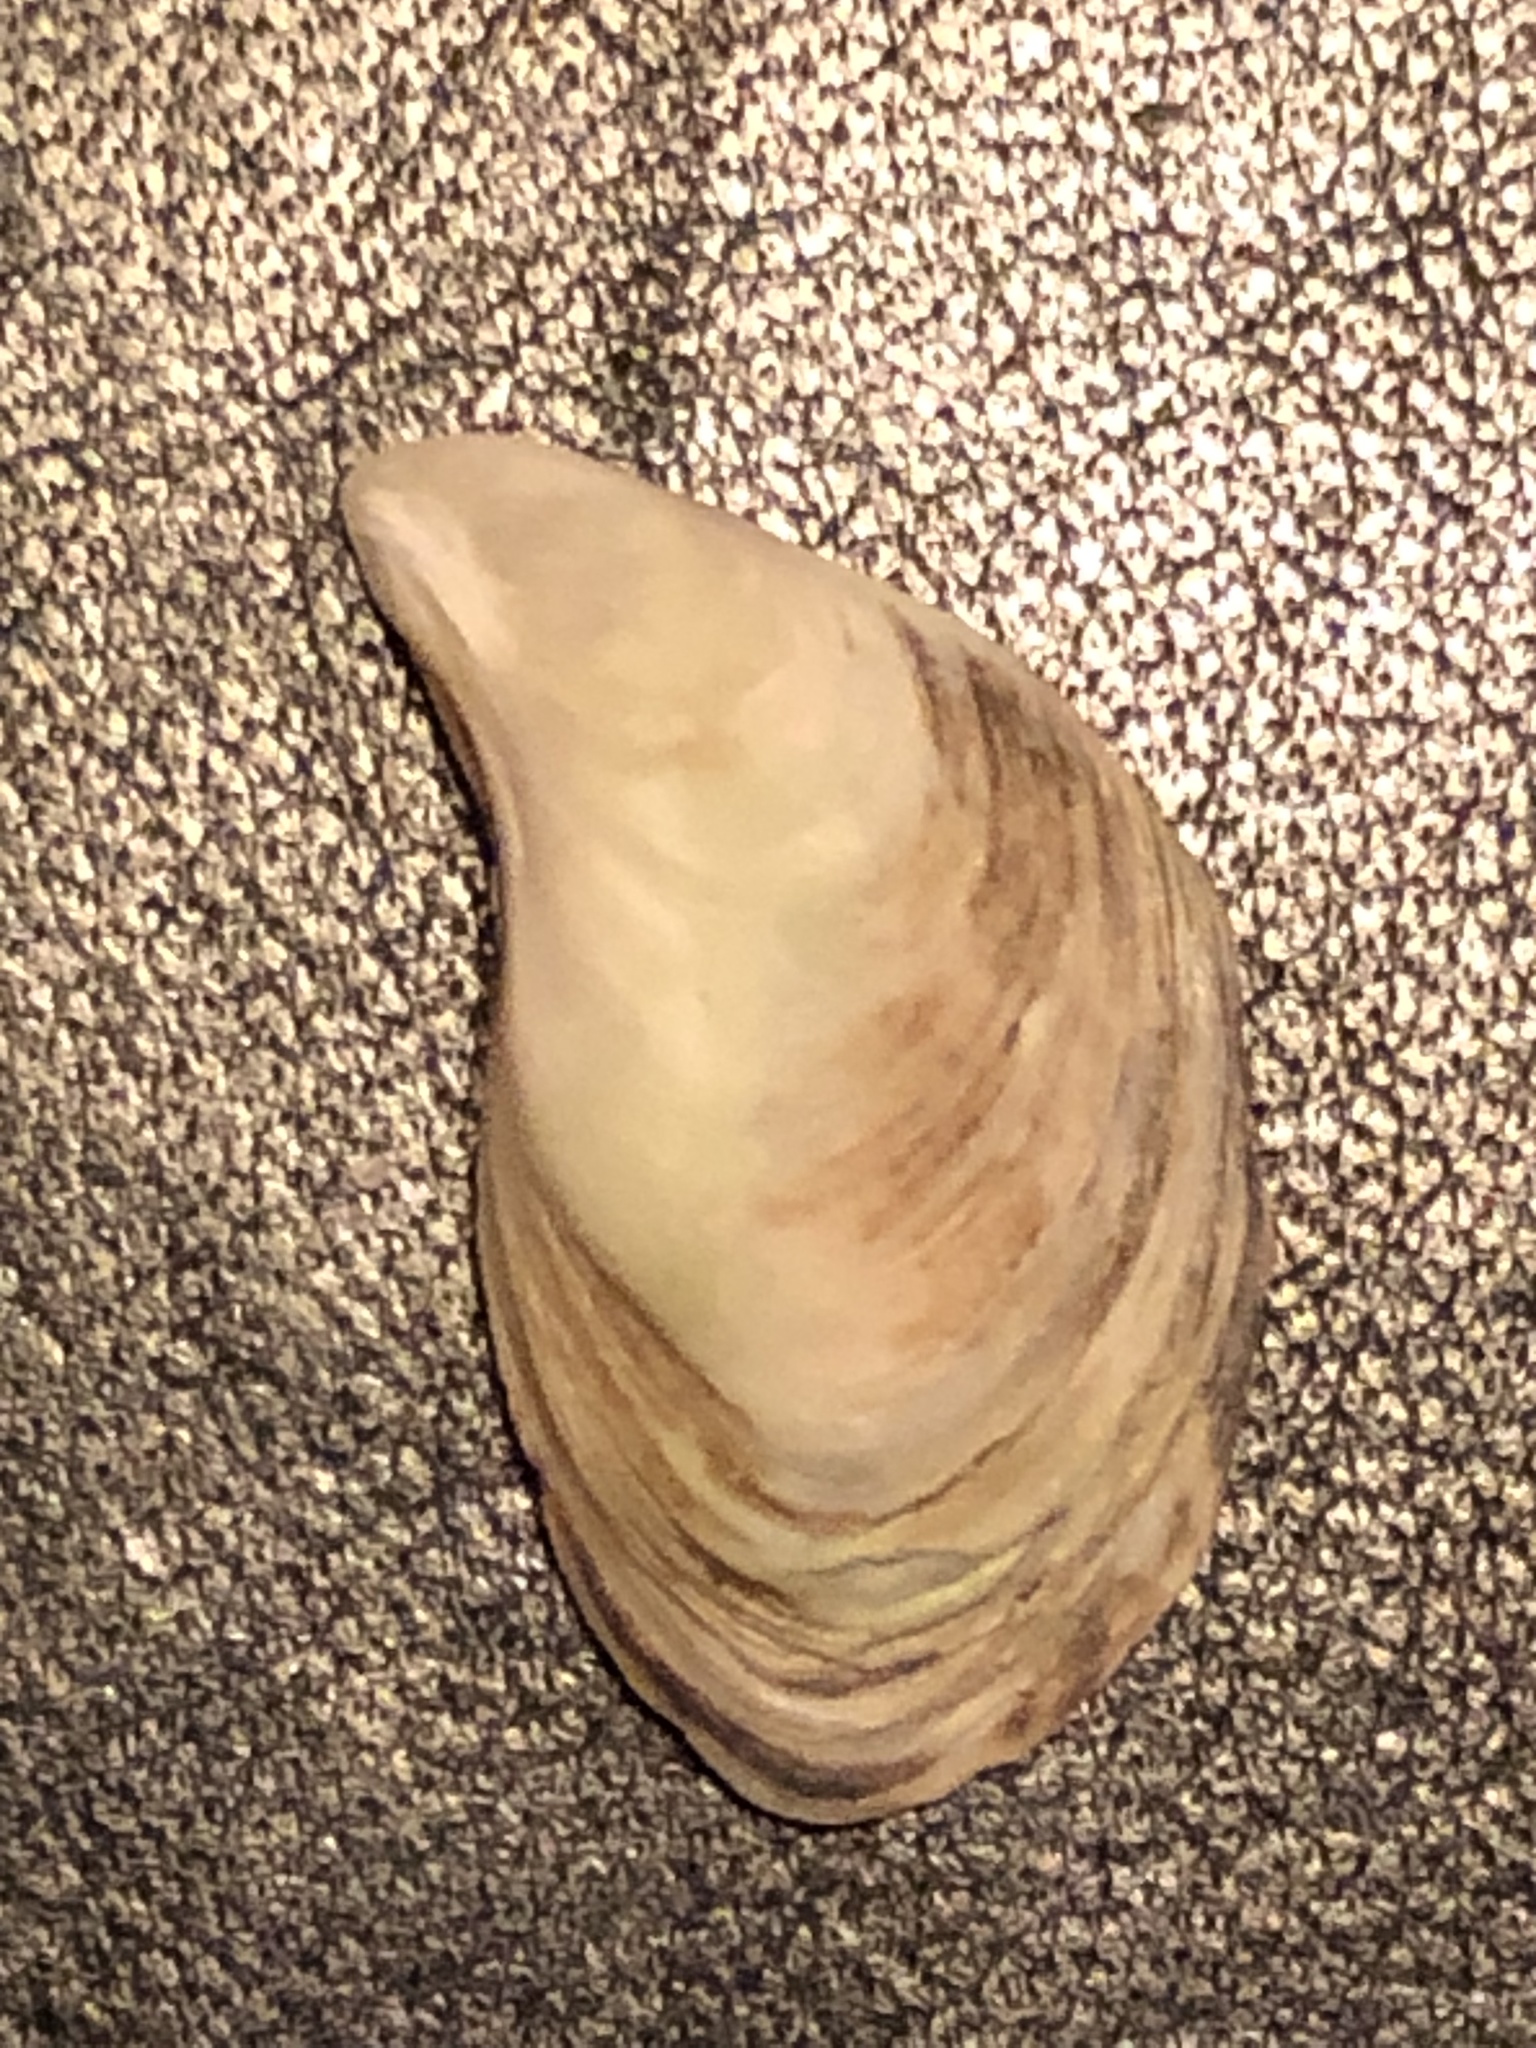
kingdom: Animalia
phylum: Mollusca
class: Bivalvia
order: Myida
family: Dreissenidae
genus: Dreissena
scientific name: Dreissena bugensis
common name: Quagga mussel
